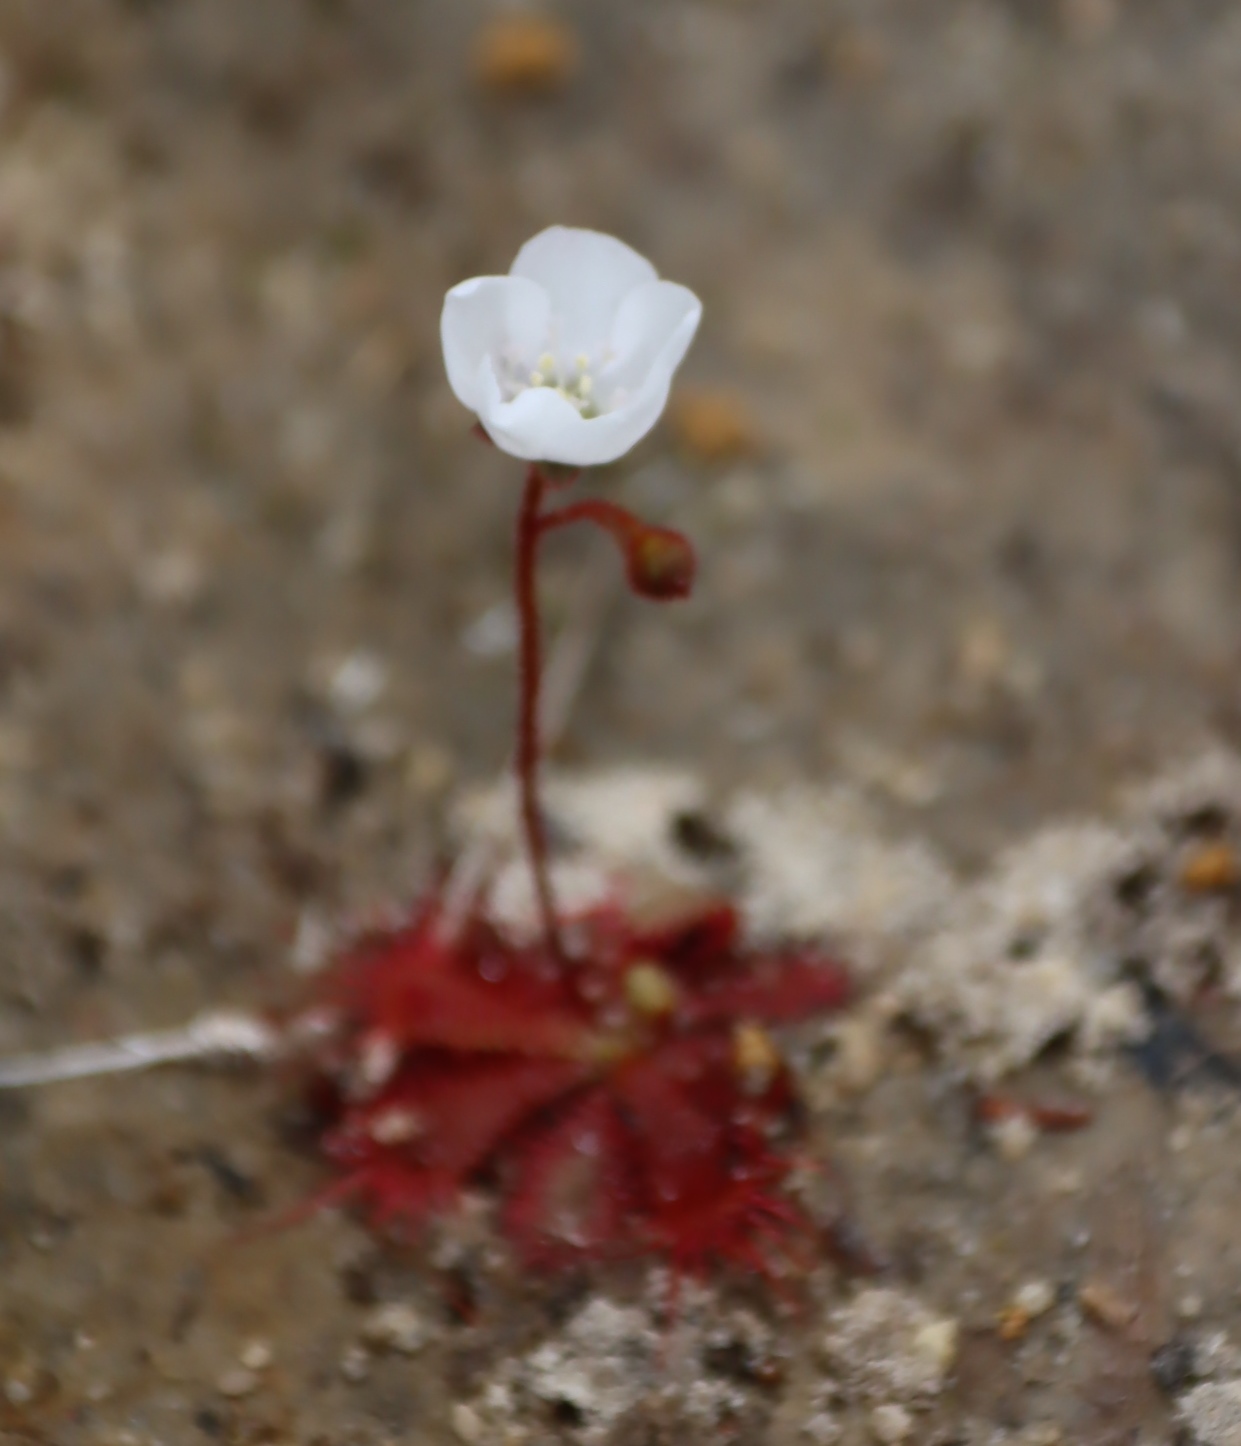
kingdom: Plantae
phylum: Tracheophyta
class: Magnoliopsida
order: Caryophyllales
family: Droseraceae
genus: Drosera
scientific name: Drosera trinervia
